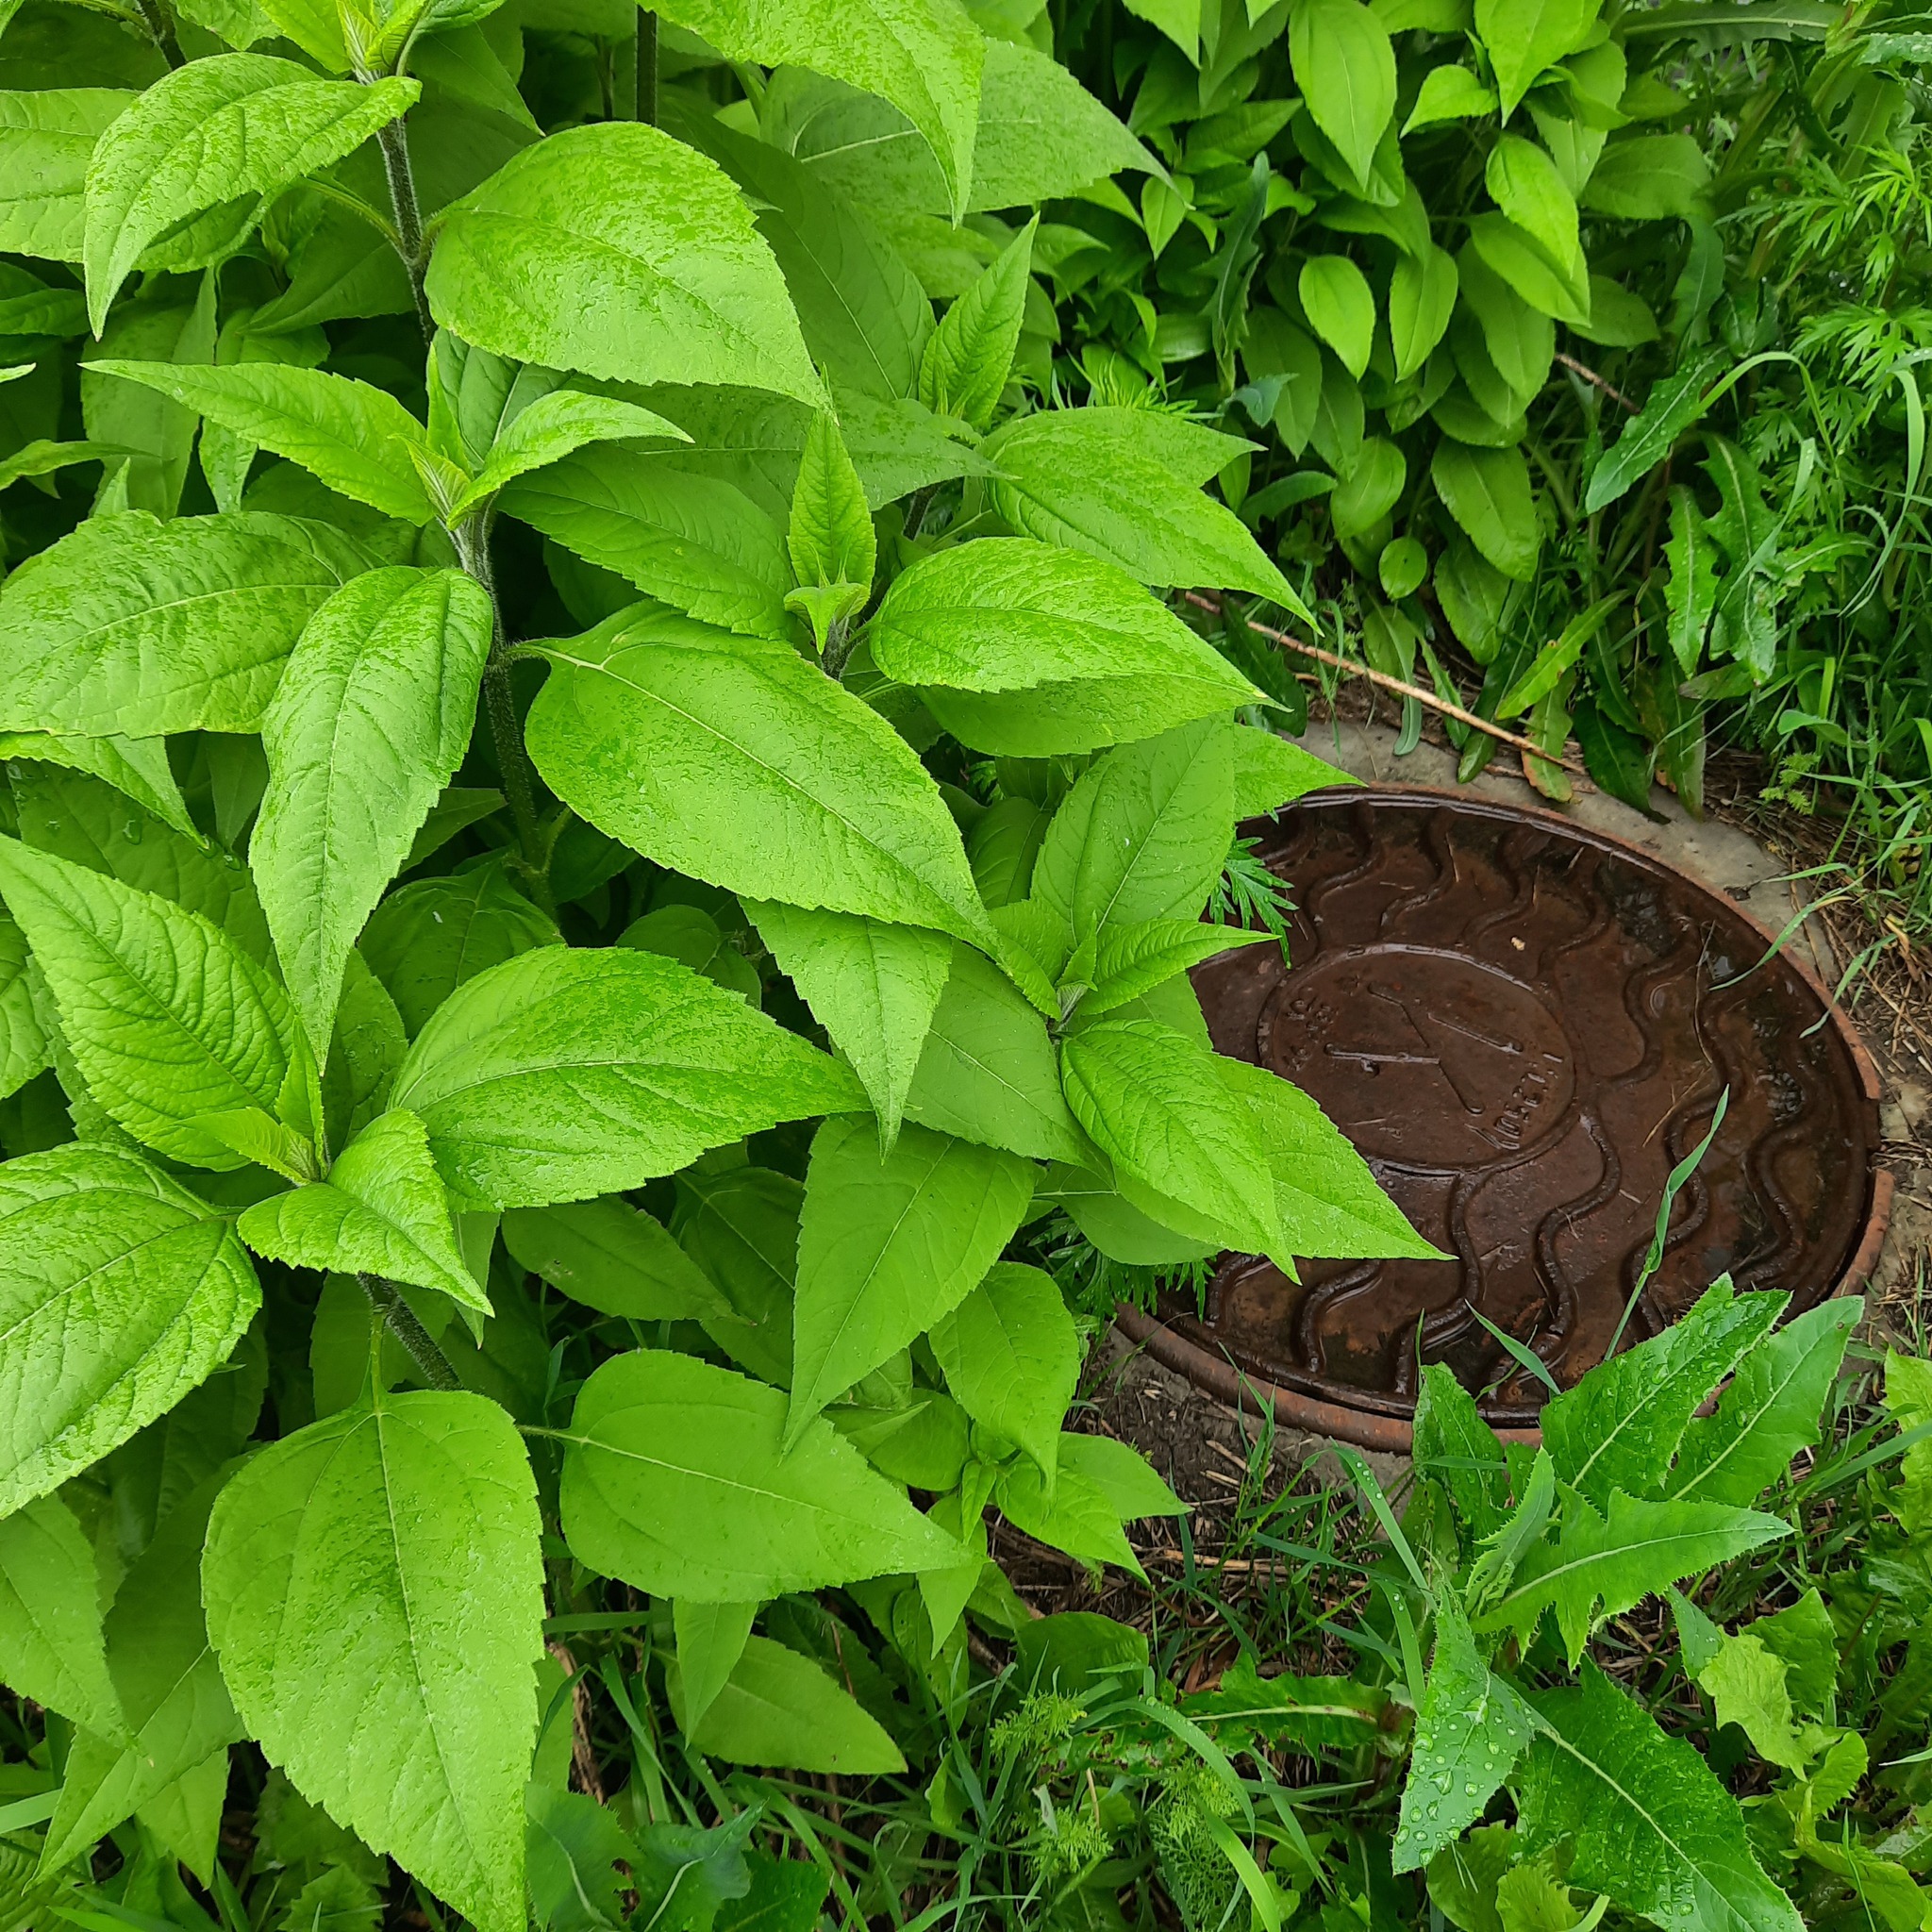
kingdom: Plantae
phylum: Tracheophyta
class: Magnoliopsida
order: Asterales
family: Asteraceae
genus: Helianthus
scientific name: Helianthus tuberosus
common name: Jerusalem artichoke
